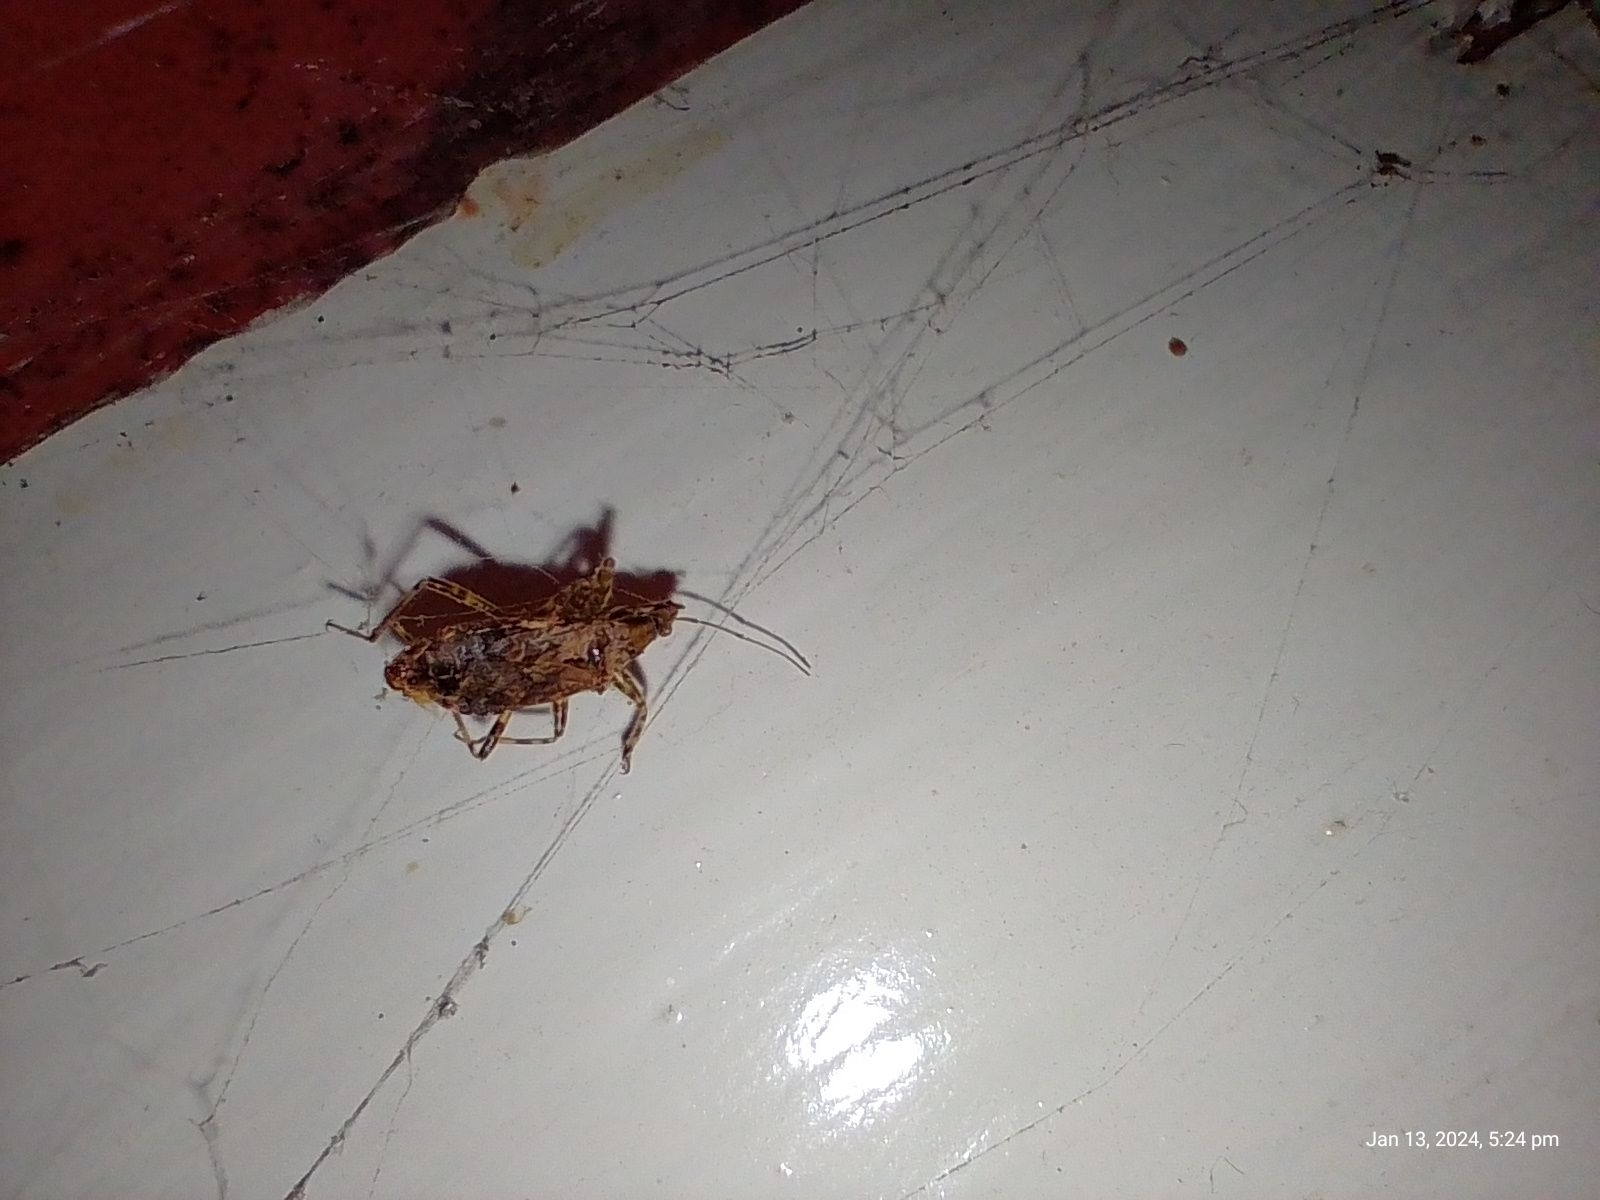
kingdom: Animalia
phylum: Arthropoda
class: Insecta
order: Hemiptera
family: Nabidae
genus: Himacerus
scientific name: Himacerus mirmicoides
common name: Ant damsel bug
